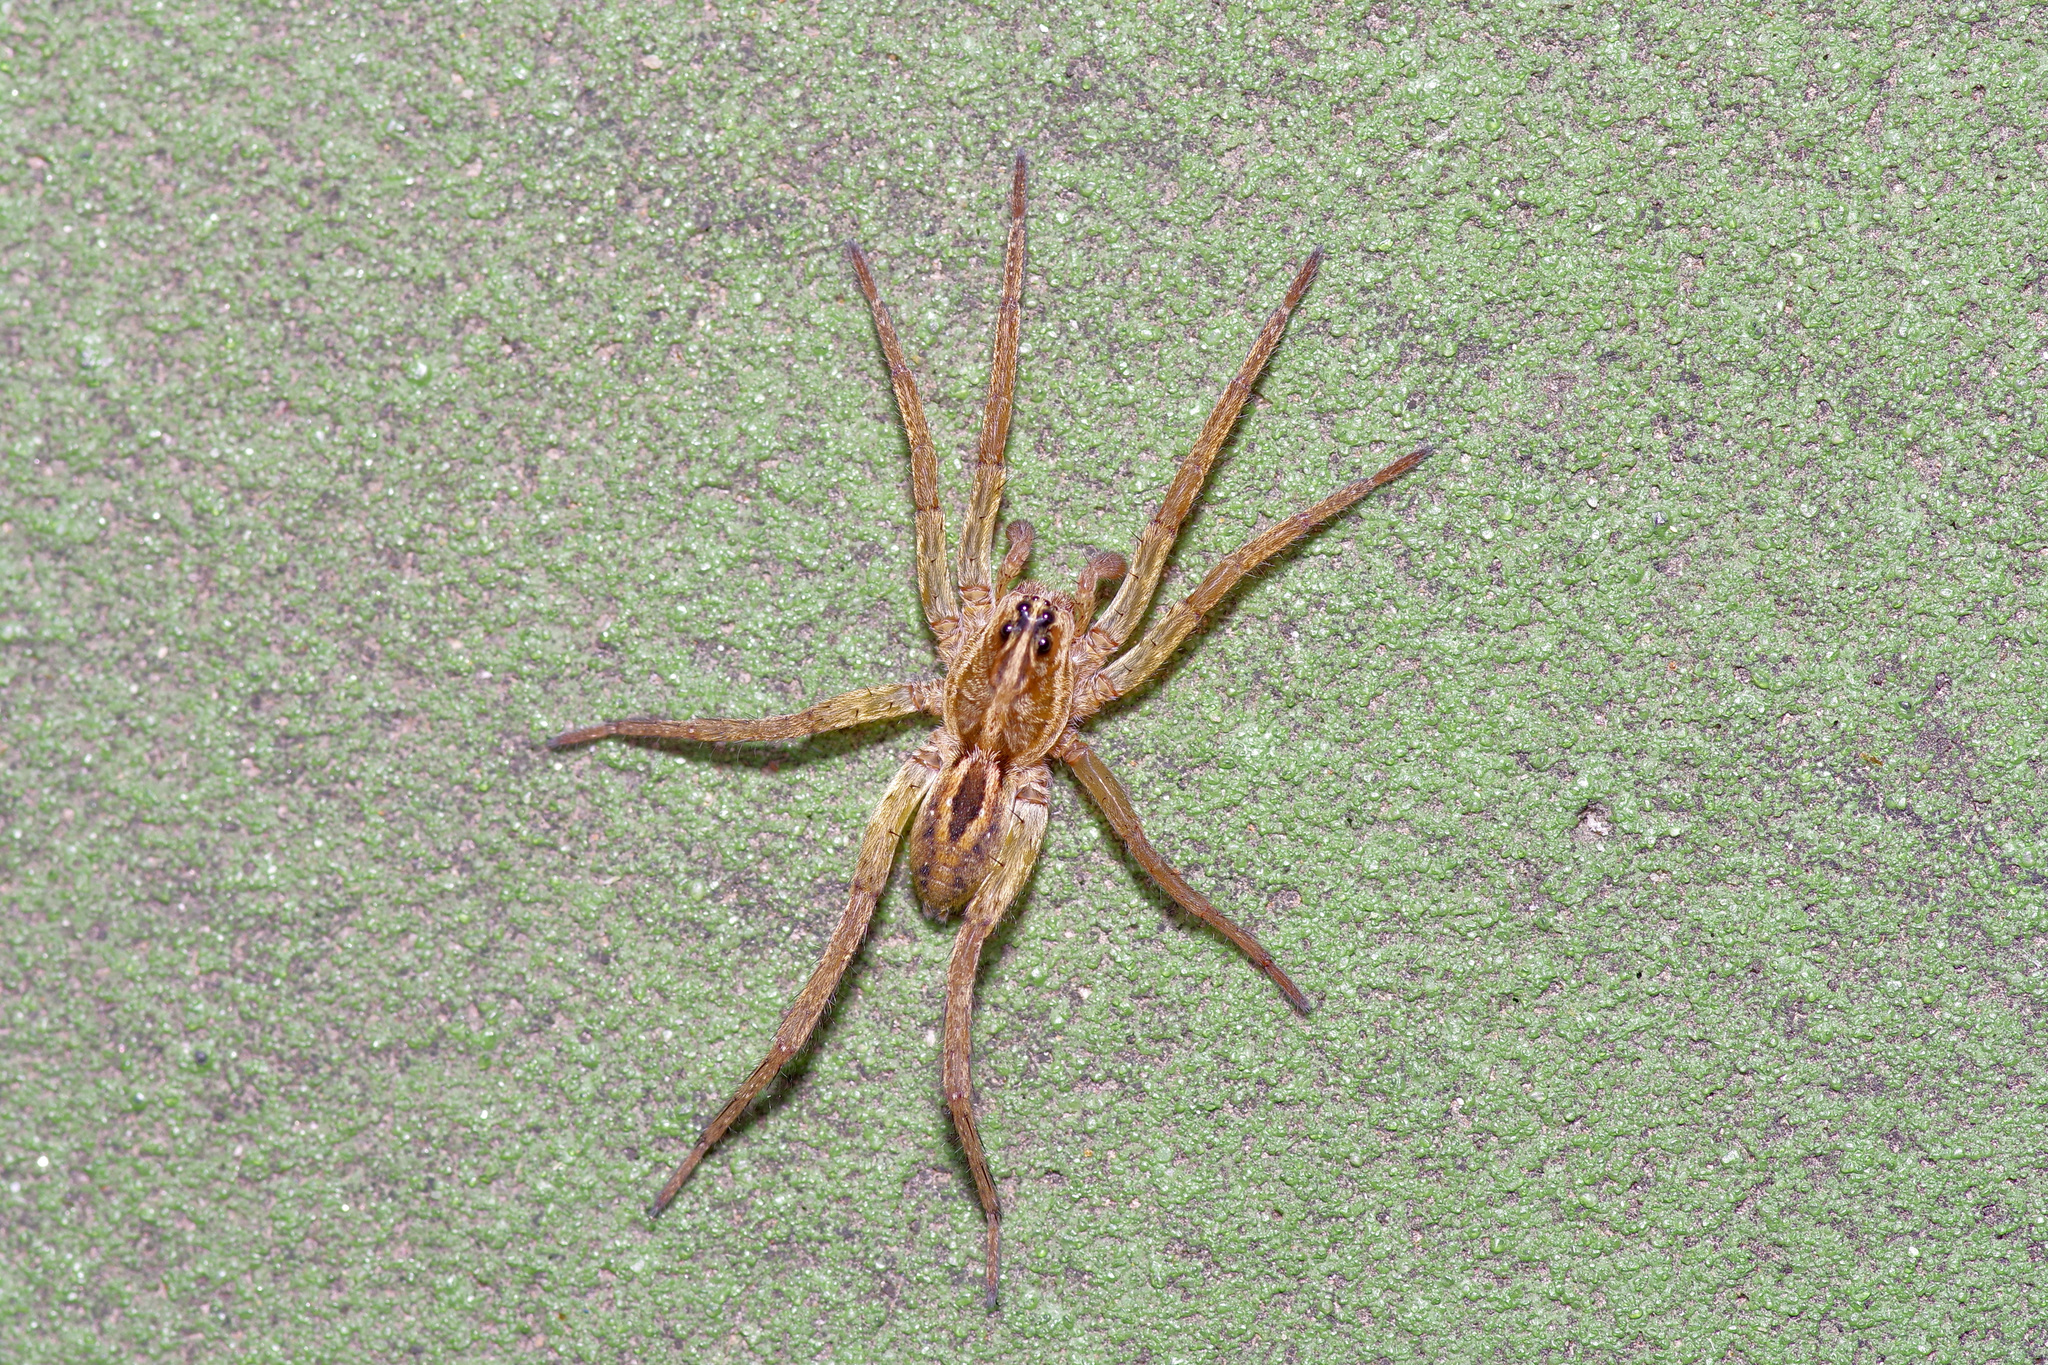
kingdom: Animalia
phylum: Arthropoda
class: Arachnida
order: Araneae
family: Lycosidae
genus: Tigrosa
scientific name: Tigrosa annexa
